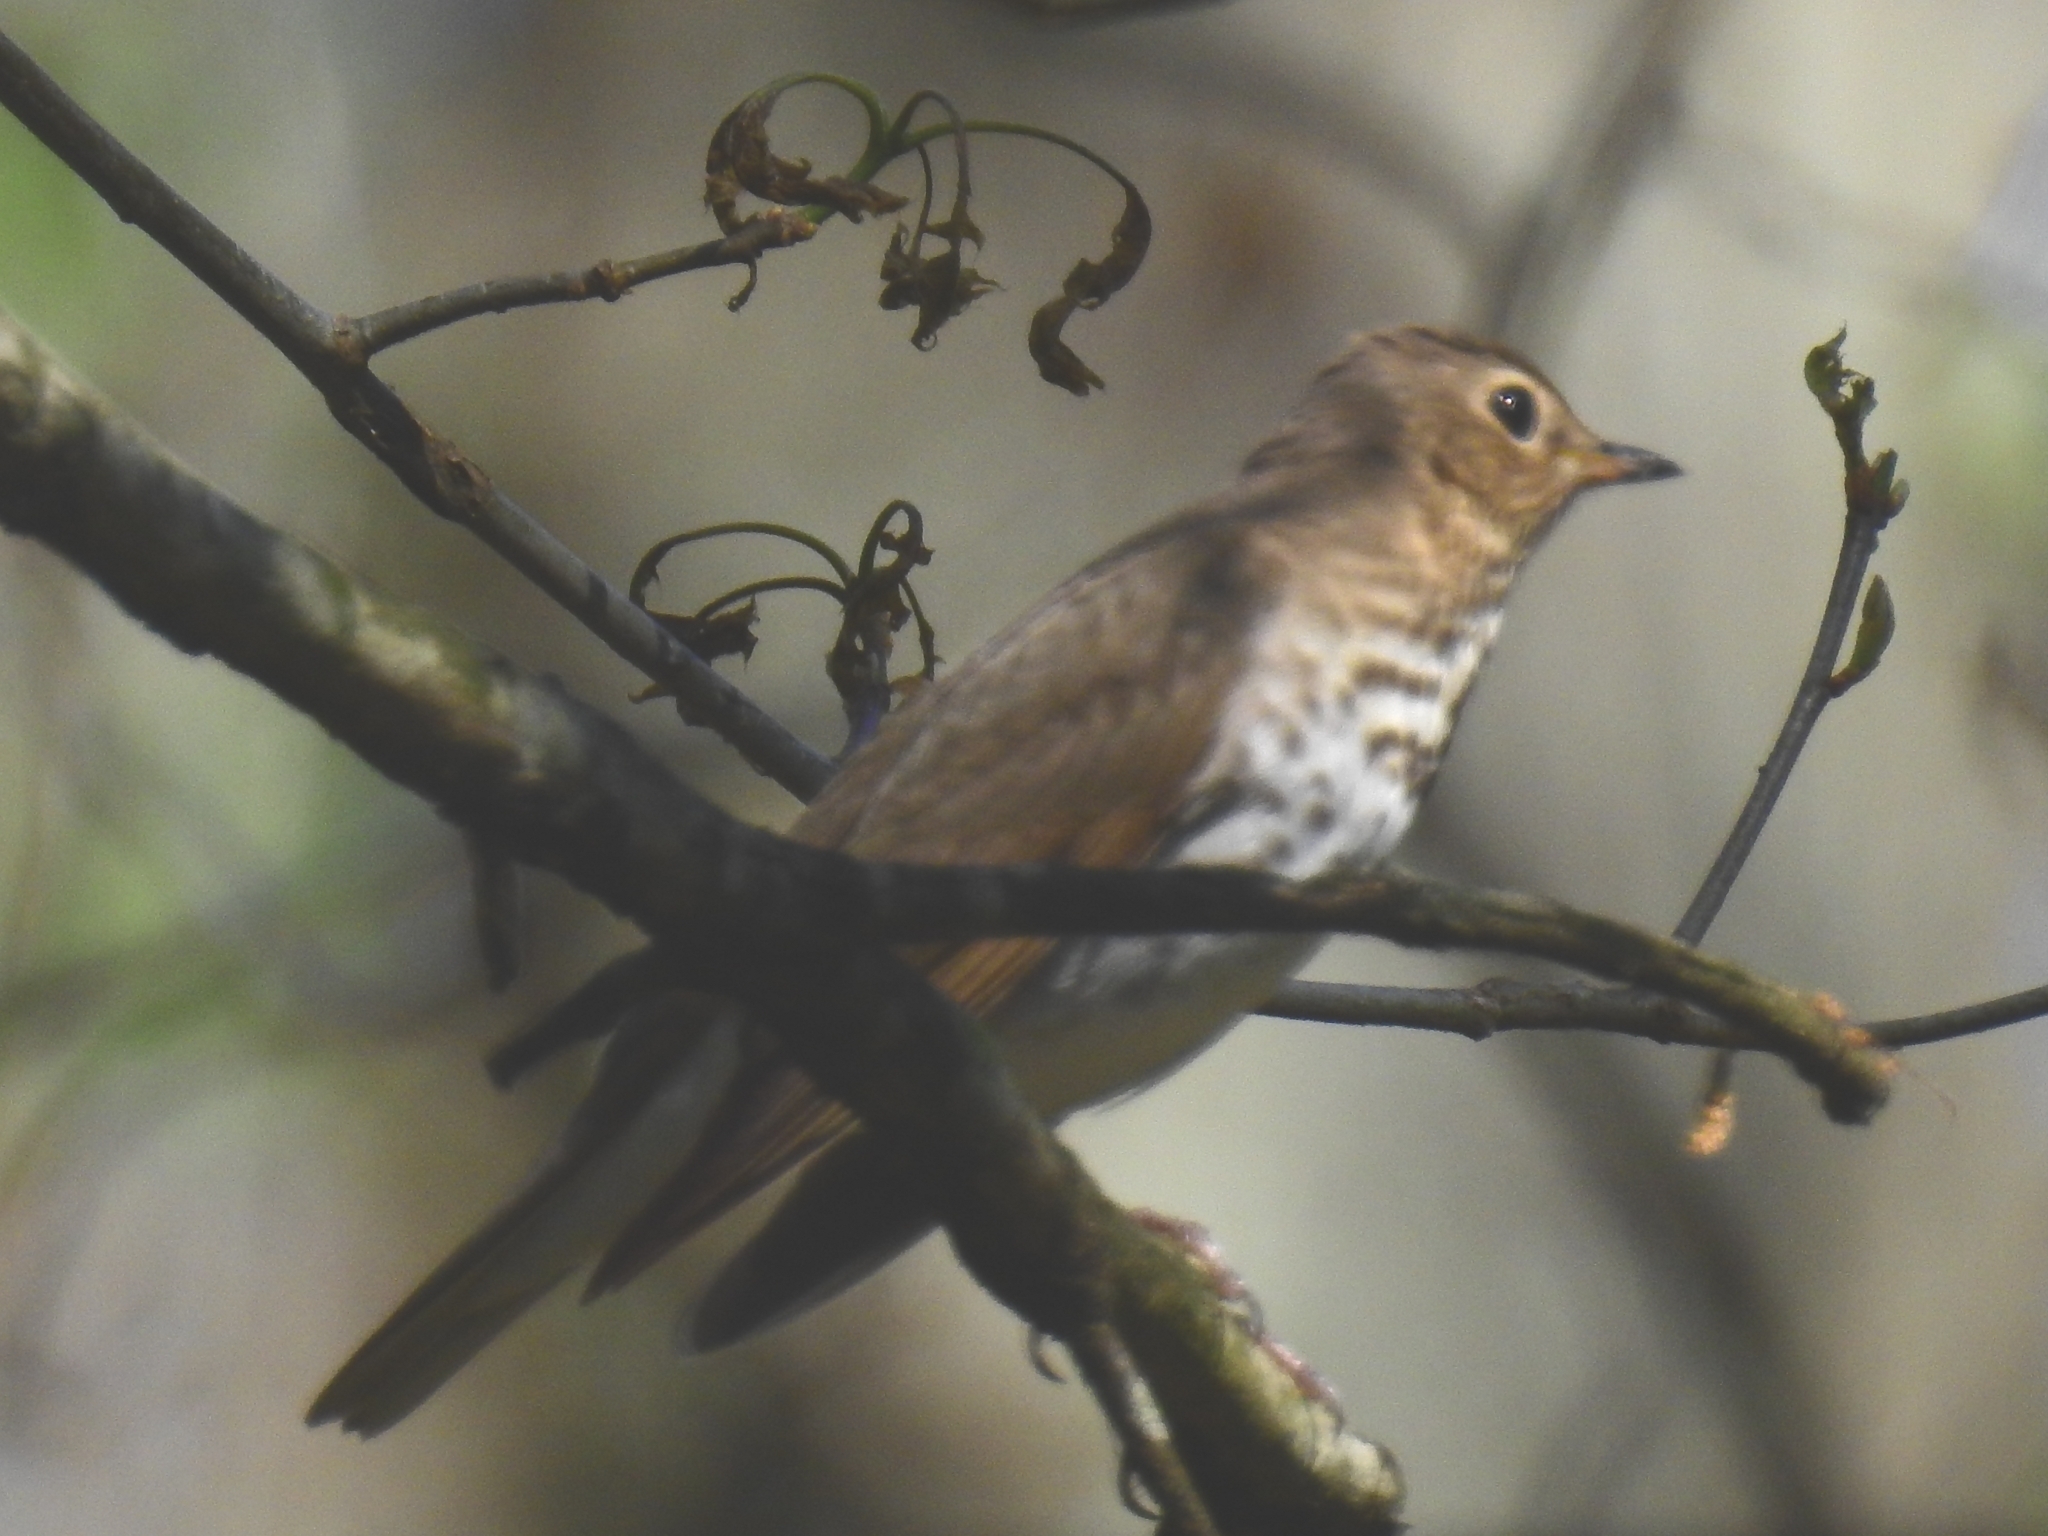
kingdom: Animalia
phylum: Chordata
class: Aves
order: Passeriformes
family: Turdidae
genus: Catharus
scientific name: Catharus ustulatus
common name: Swainson's thrush
